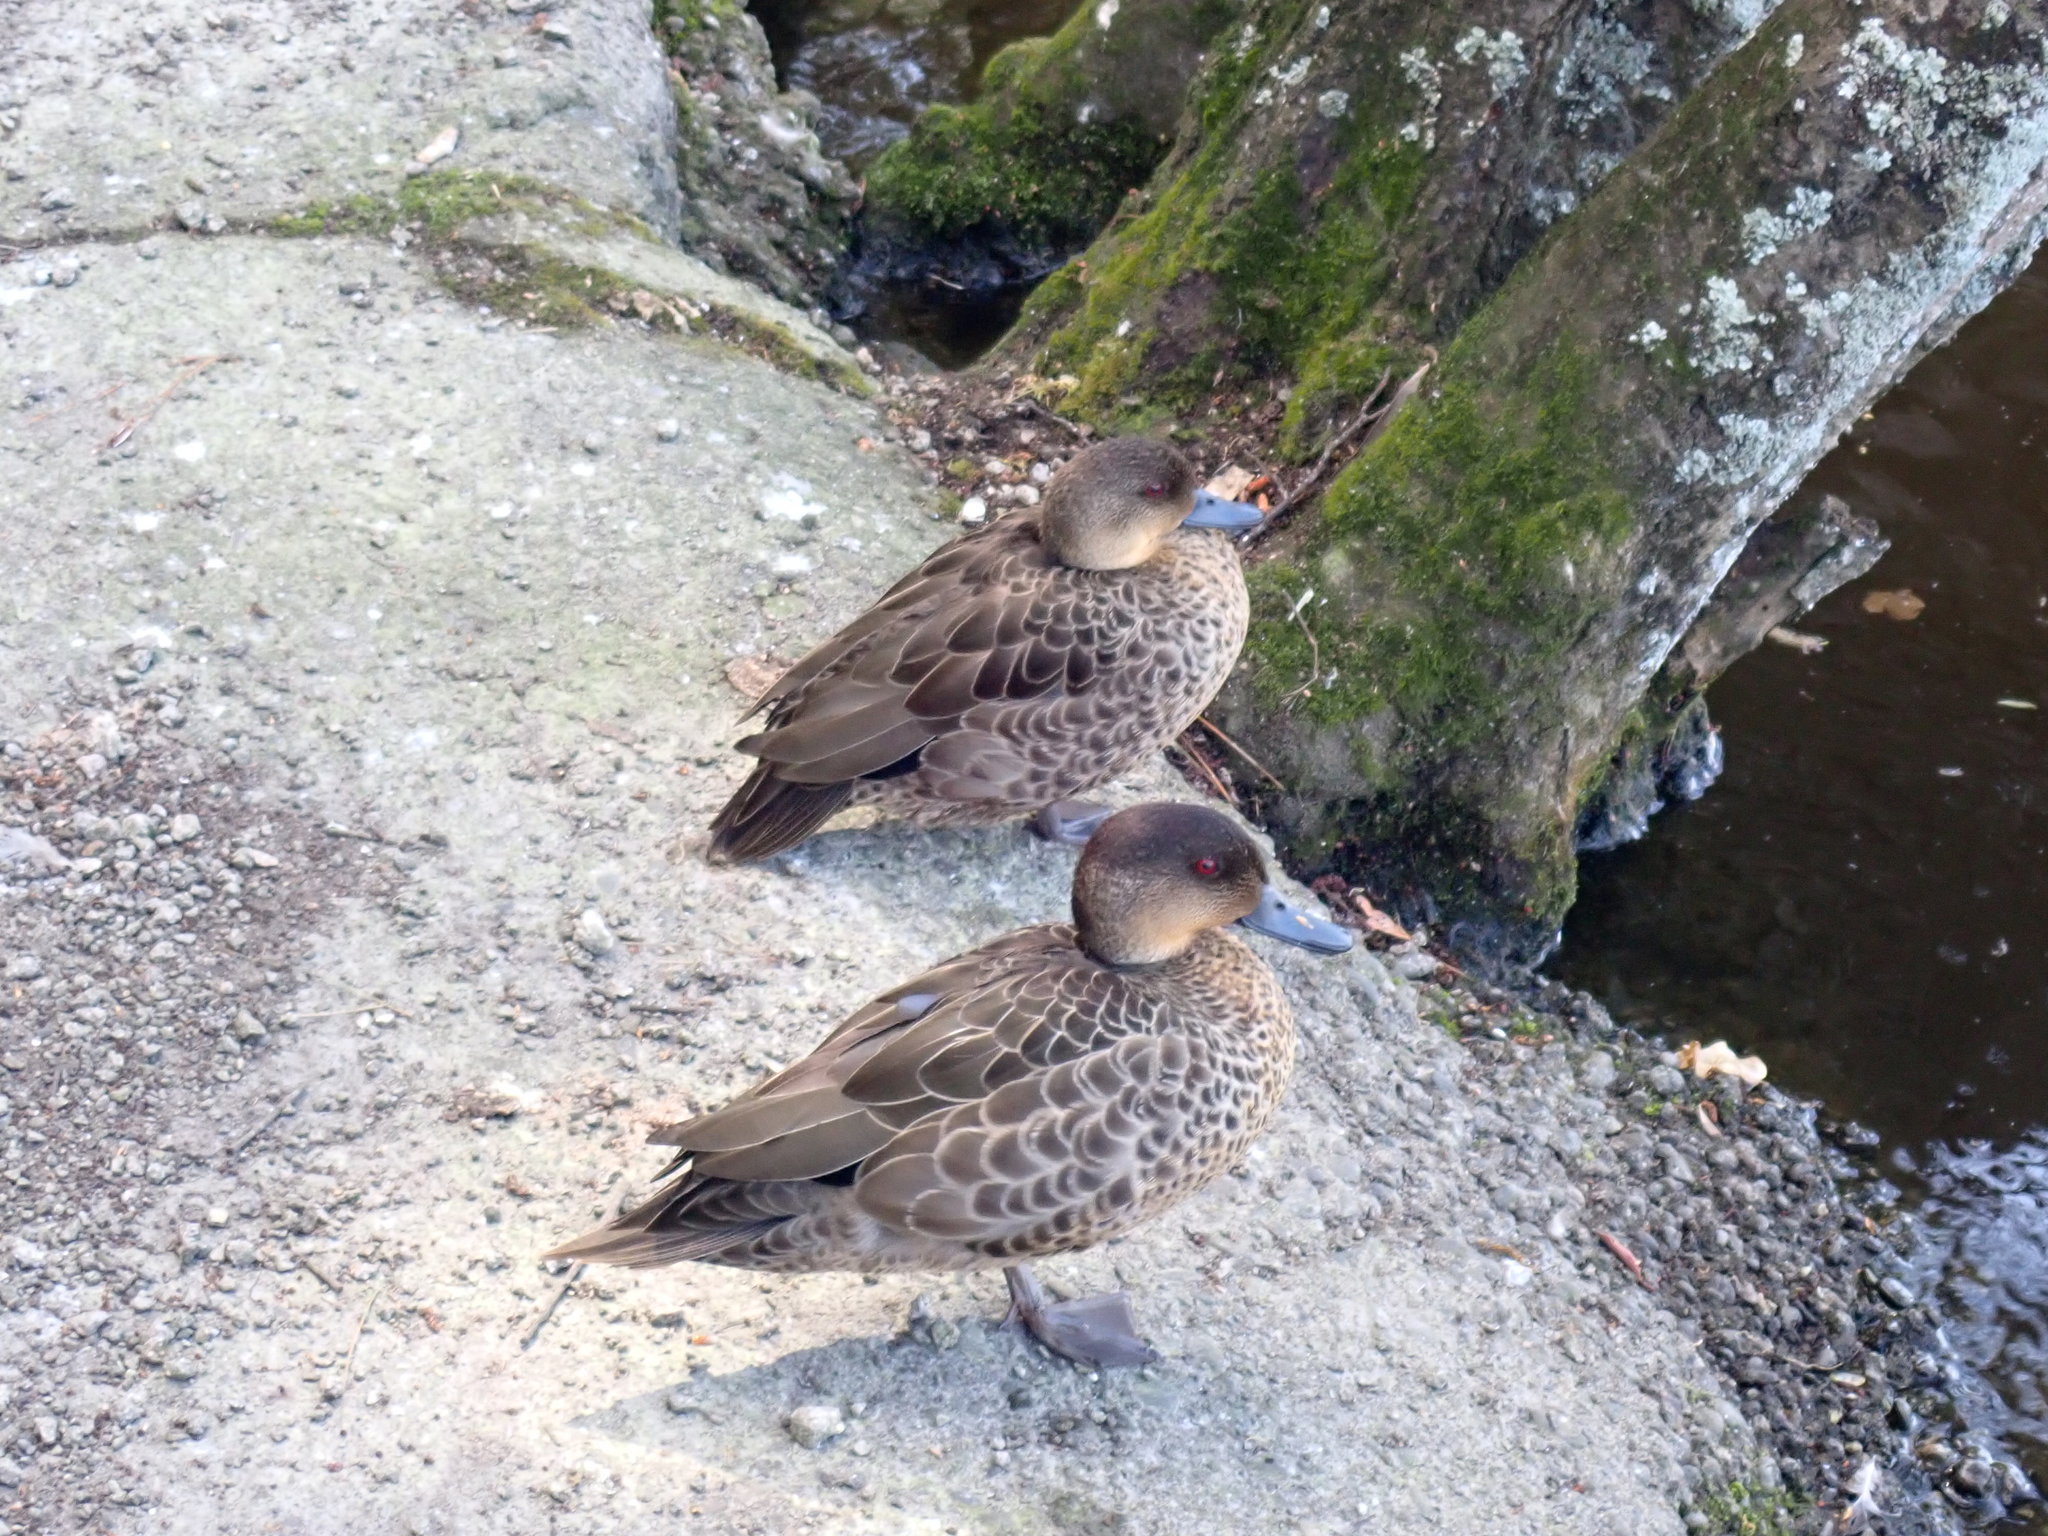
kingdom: Animalia
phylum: Chordata
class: Aves
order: Anseriformes
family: Anatidae
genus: Anas
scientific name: Anas gracilis
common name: Grey teal
